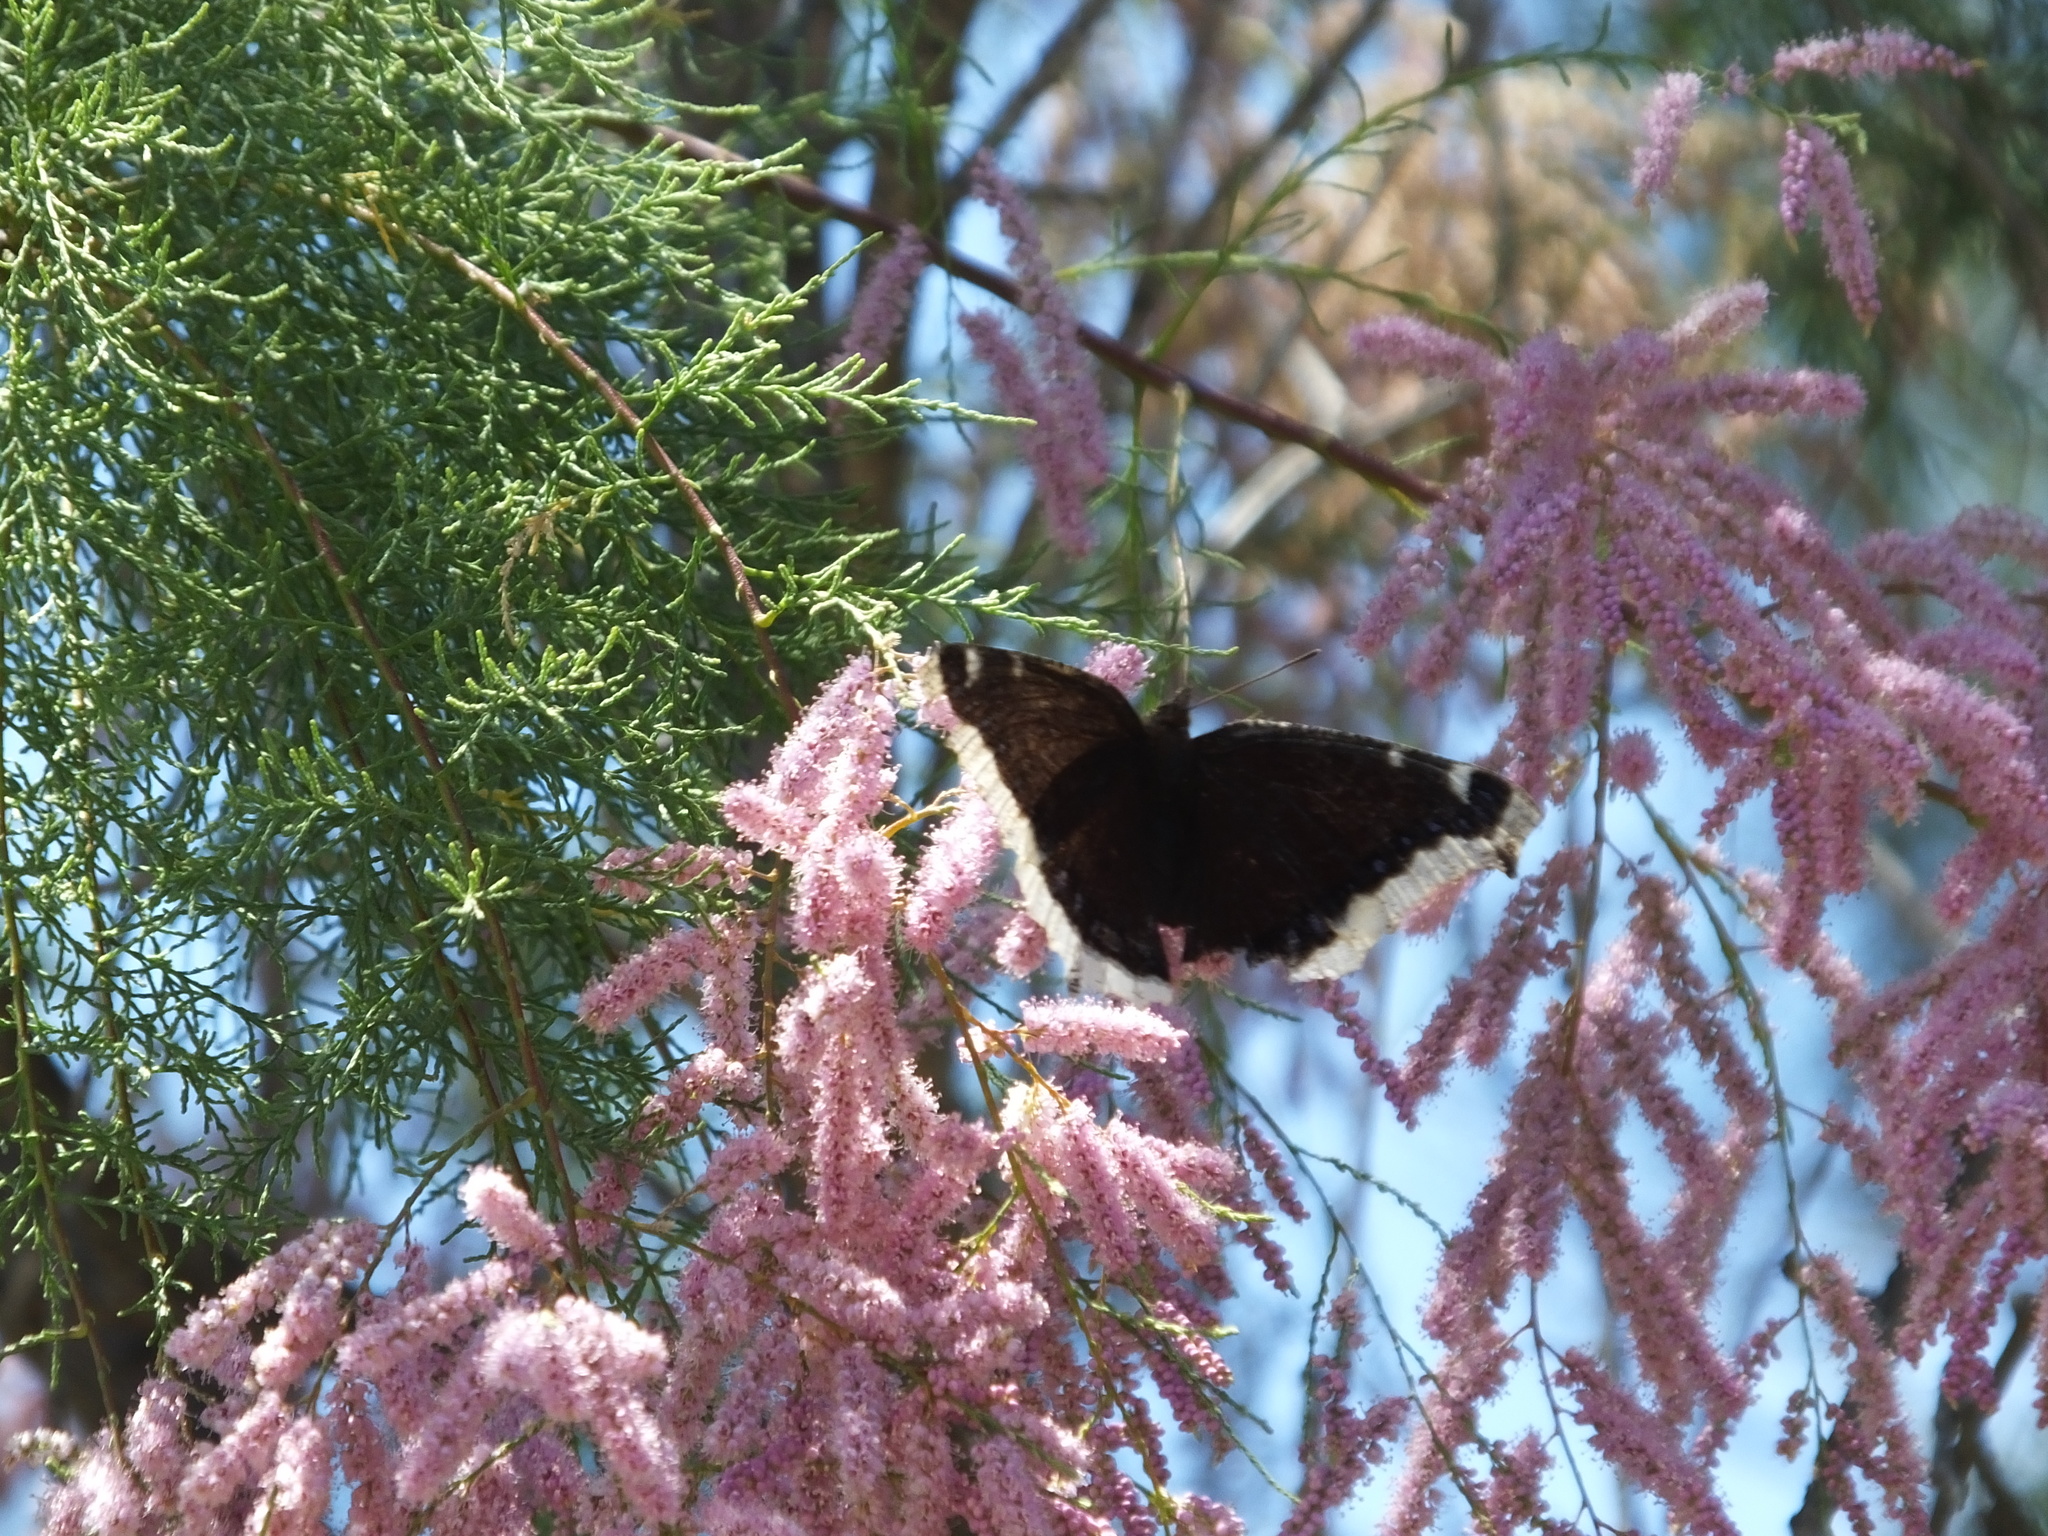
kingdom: Animalia
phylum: Arthropoda
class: Insecta
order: Lepidoptera
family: Nymphalidae
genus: Nymphalis
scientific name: Nymphalis antiopa
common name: Camberwell beauty
